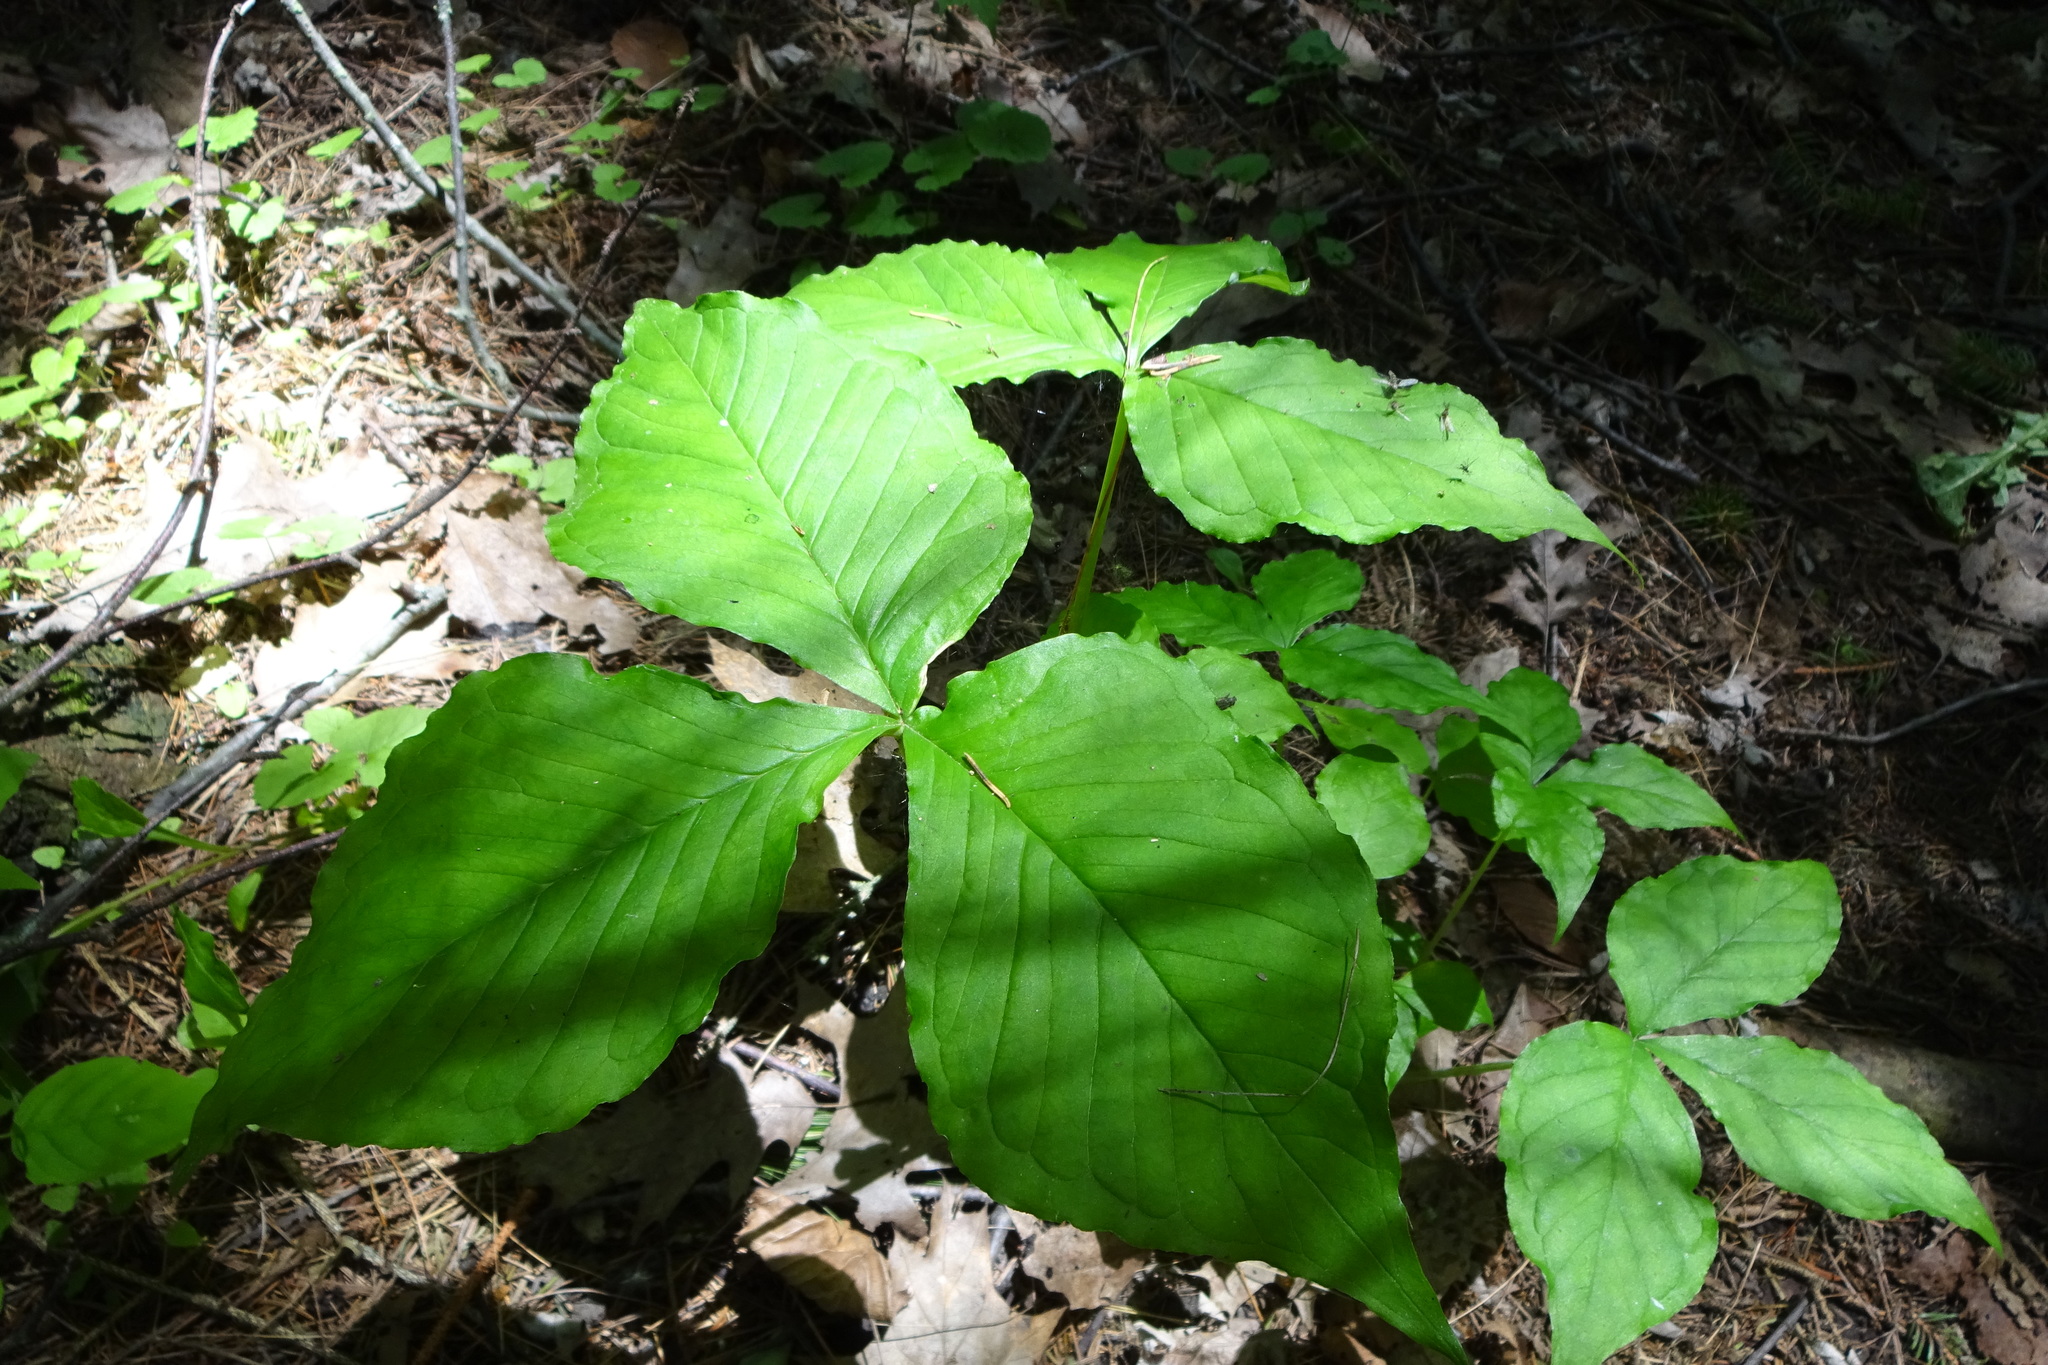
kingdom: Plantae
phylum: Tracheophyta
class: Liliopsida
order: Alismatales
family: Araceae
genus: Arisaema
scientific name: Arisaema triphyllum
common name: Jack-in-the-pulpit
